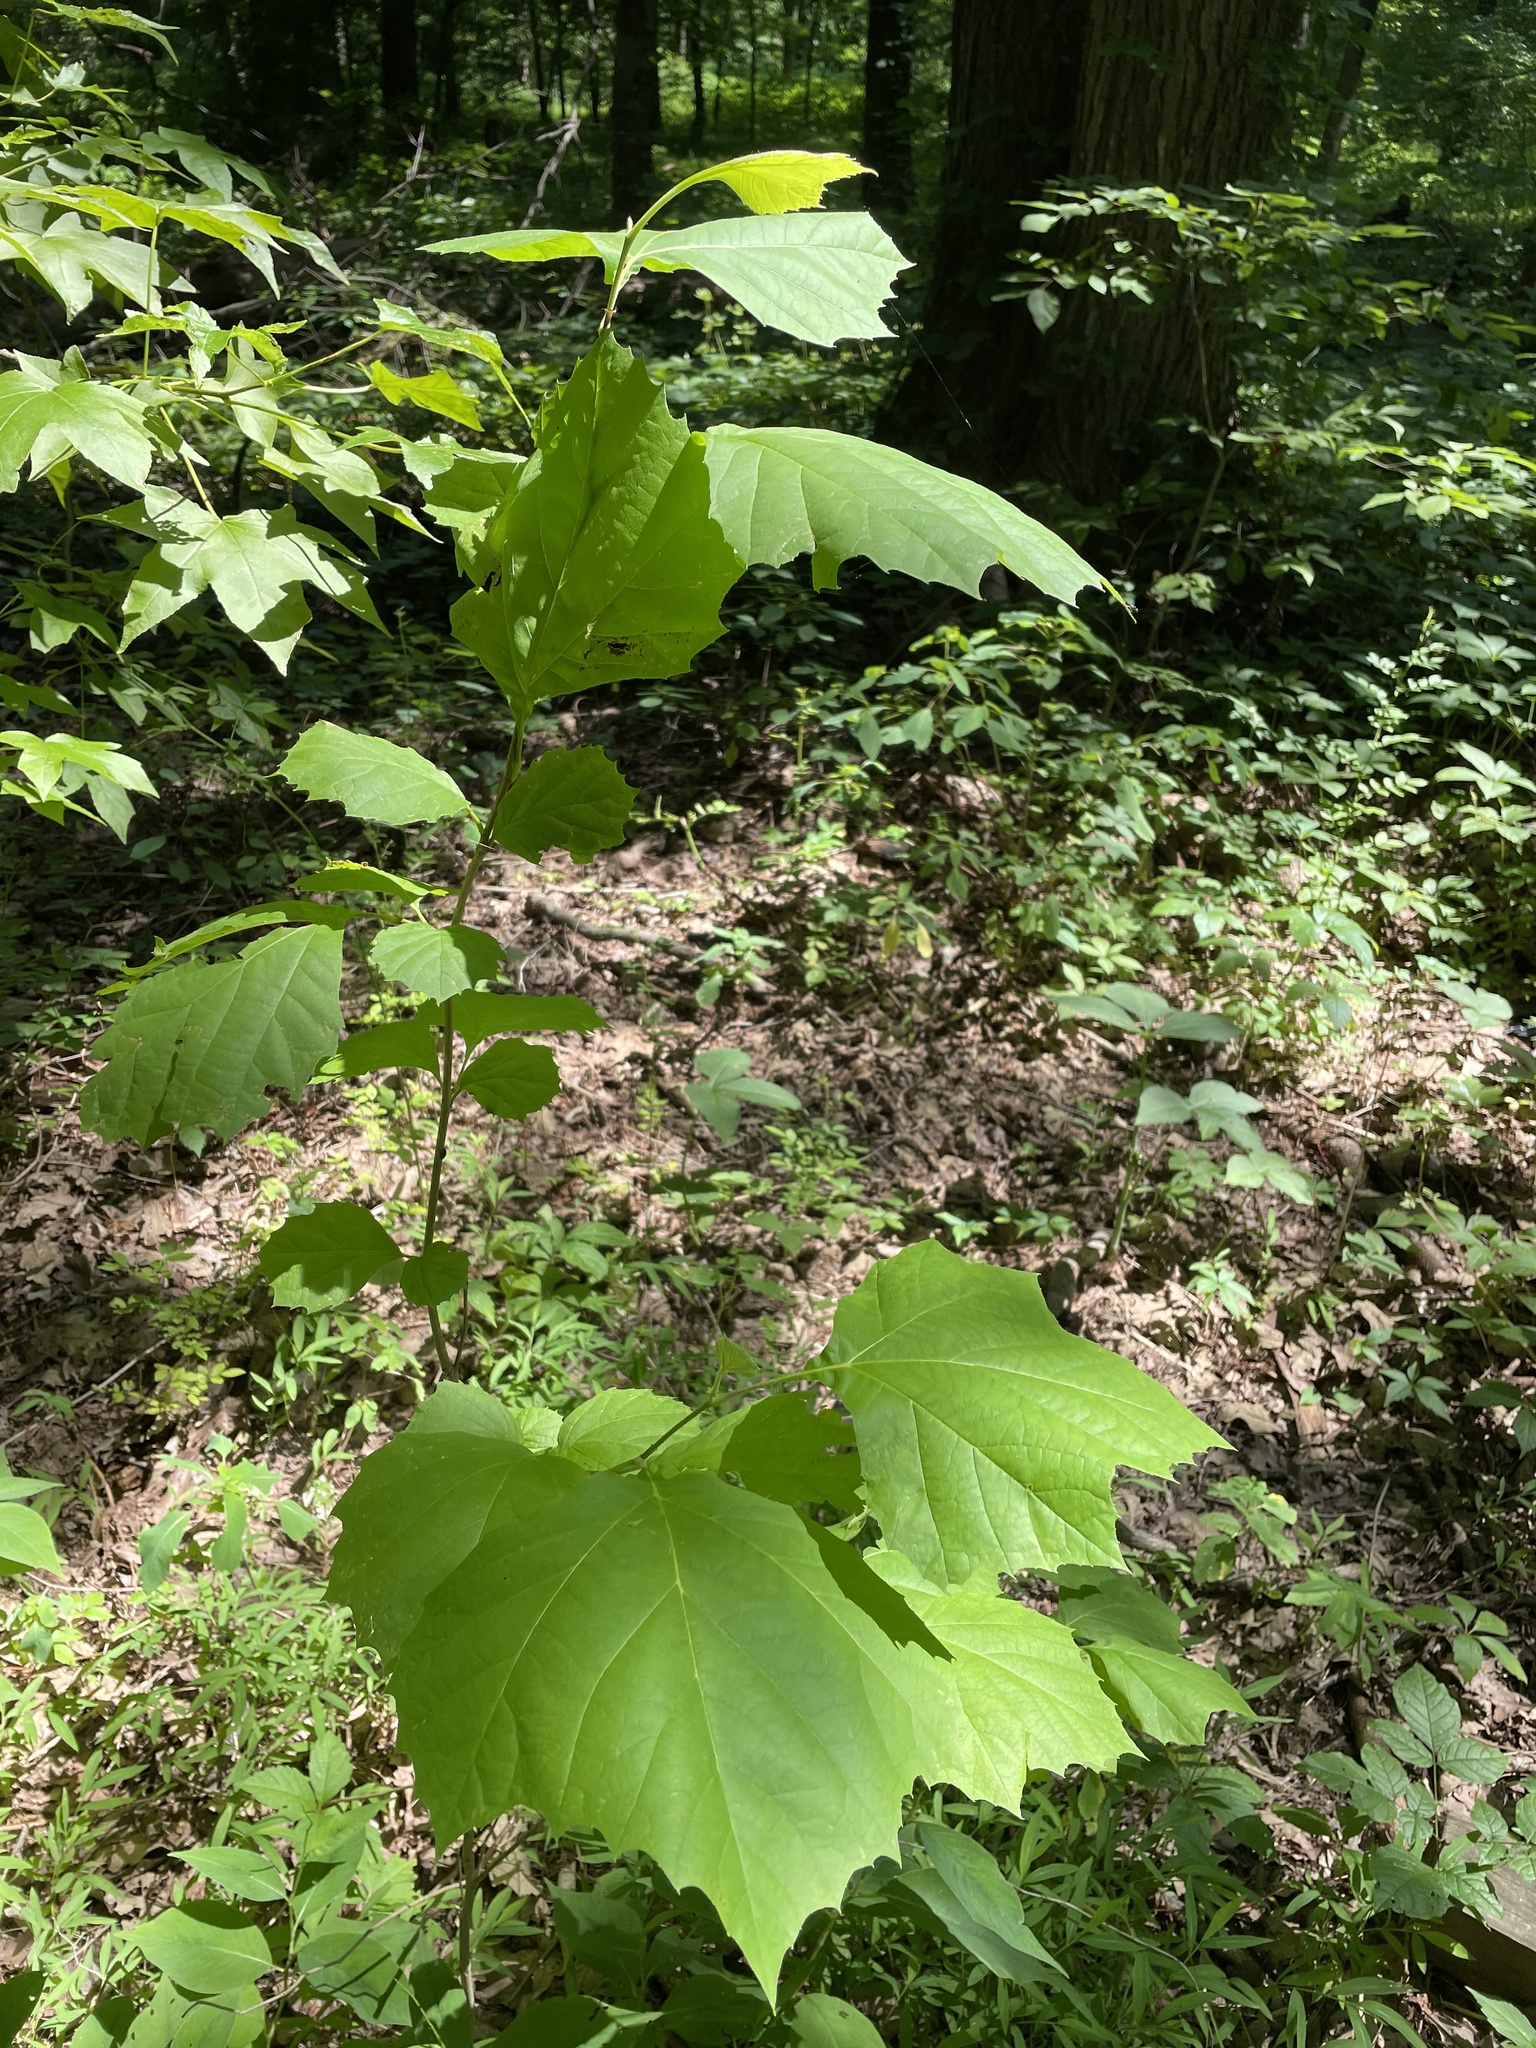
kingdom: Plantae
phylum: Tracheophyta
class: Magnoliopsida
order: Proteales
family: Platanaceae
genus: Platanus
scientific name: Platanus occidentalis
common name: American sycamore
